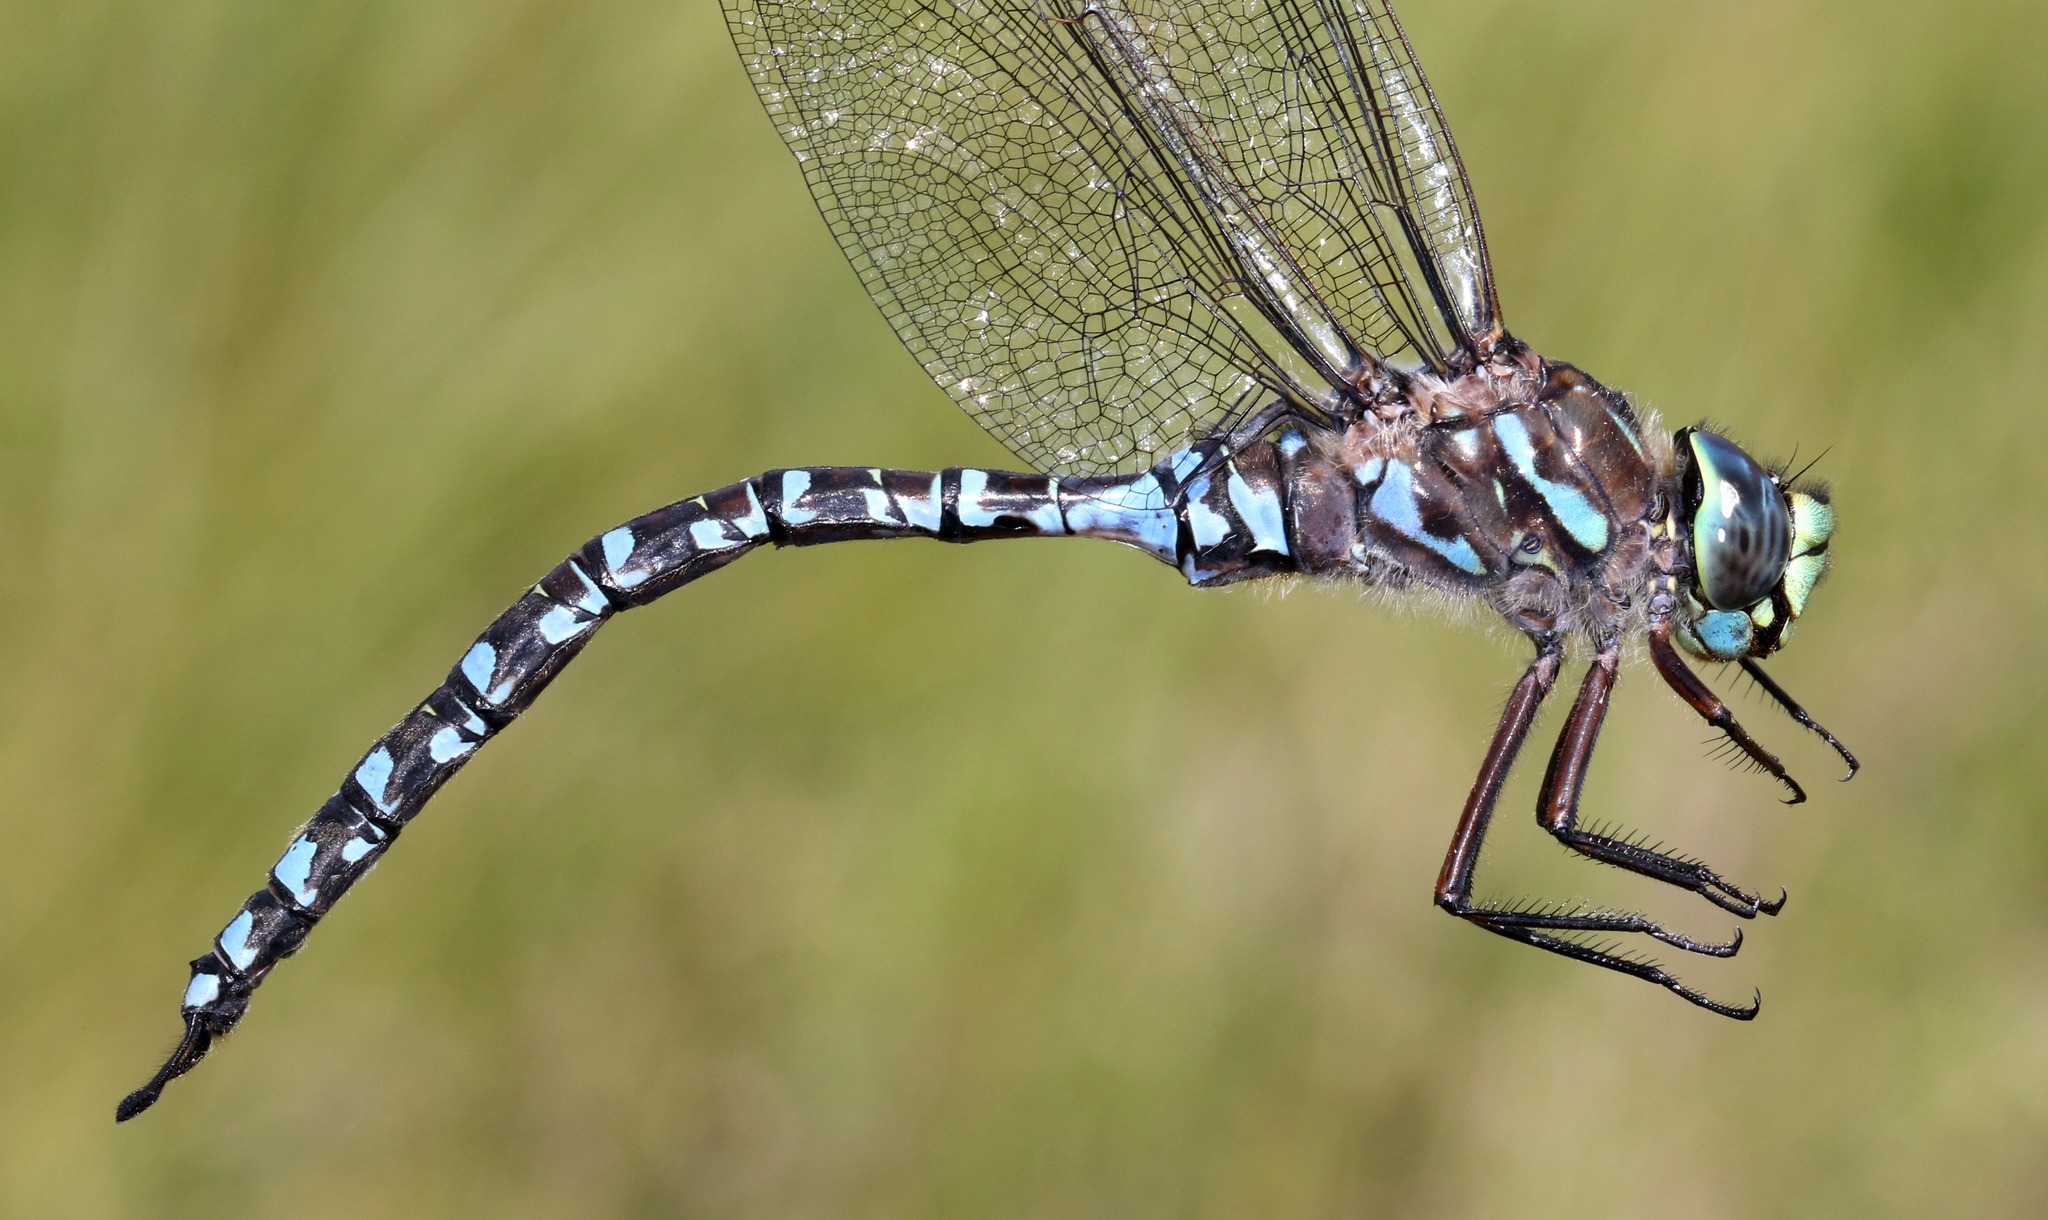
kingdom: Animalia
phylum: Arthropoda
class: Insecta
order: Odonata
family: Aeshnidae
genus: Aeshna
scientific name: Aeshna eremita
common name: Lake darner
